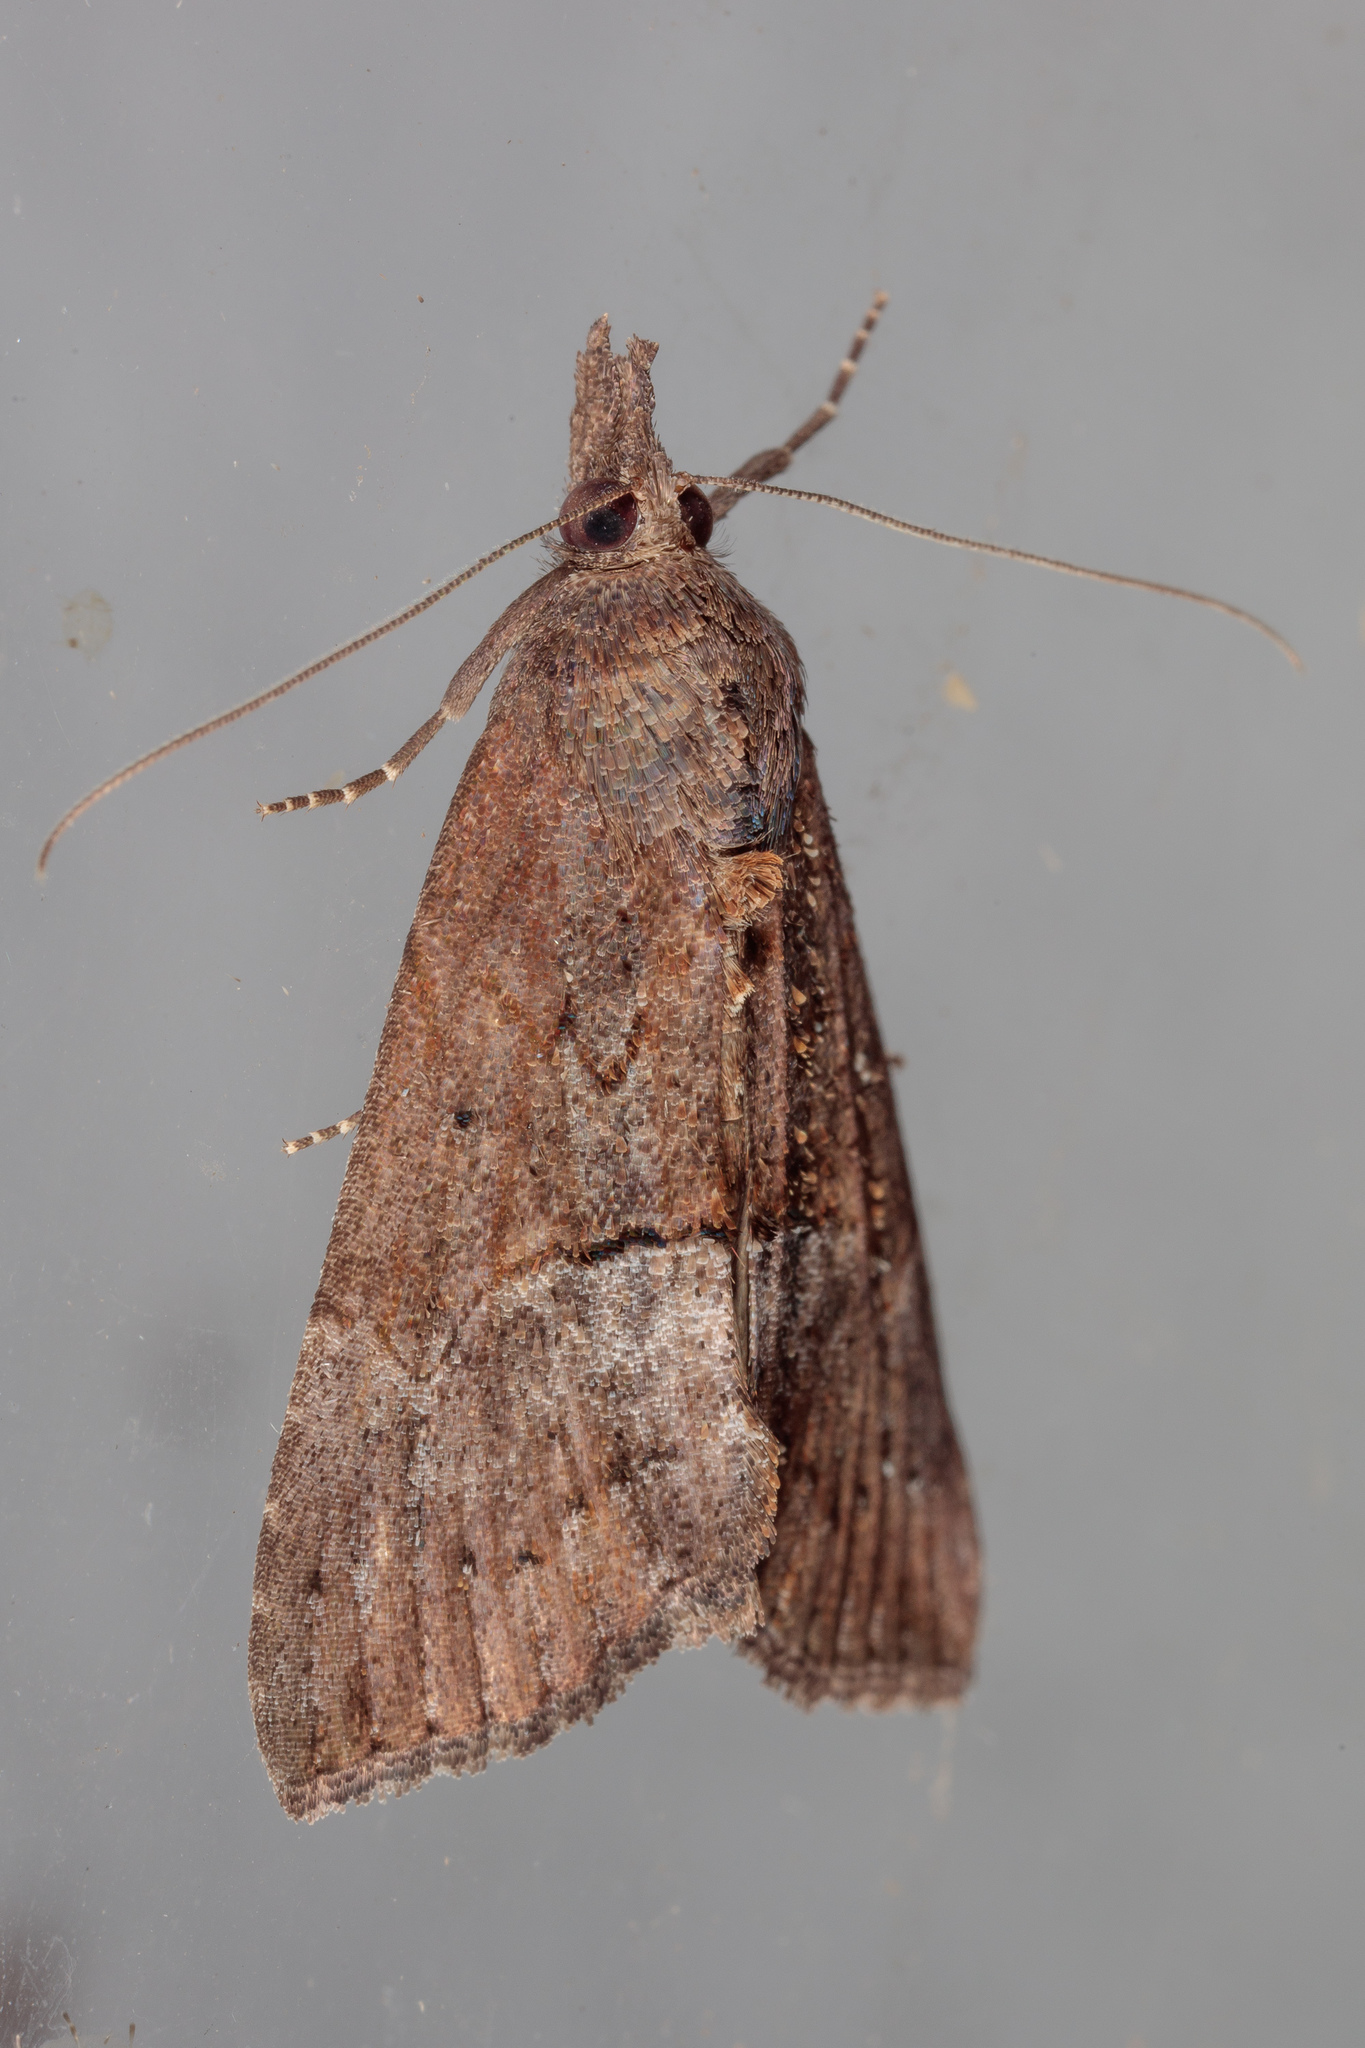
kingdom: Animalia
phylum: Arthropoda
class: Insecta
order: Lepidoptera
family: Erebidae
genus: Hypena
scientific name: Hypena scabra
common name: Green cloverworm
